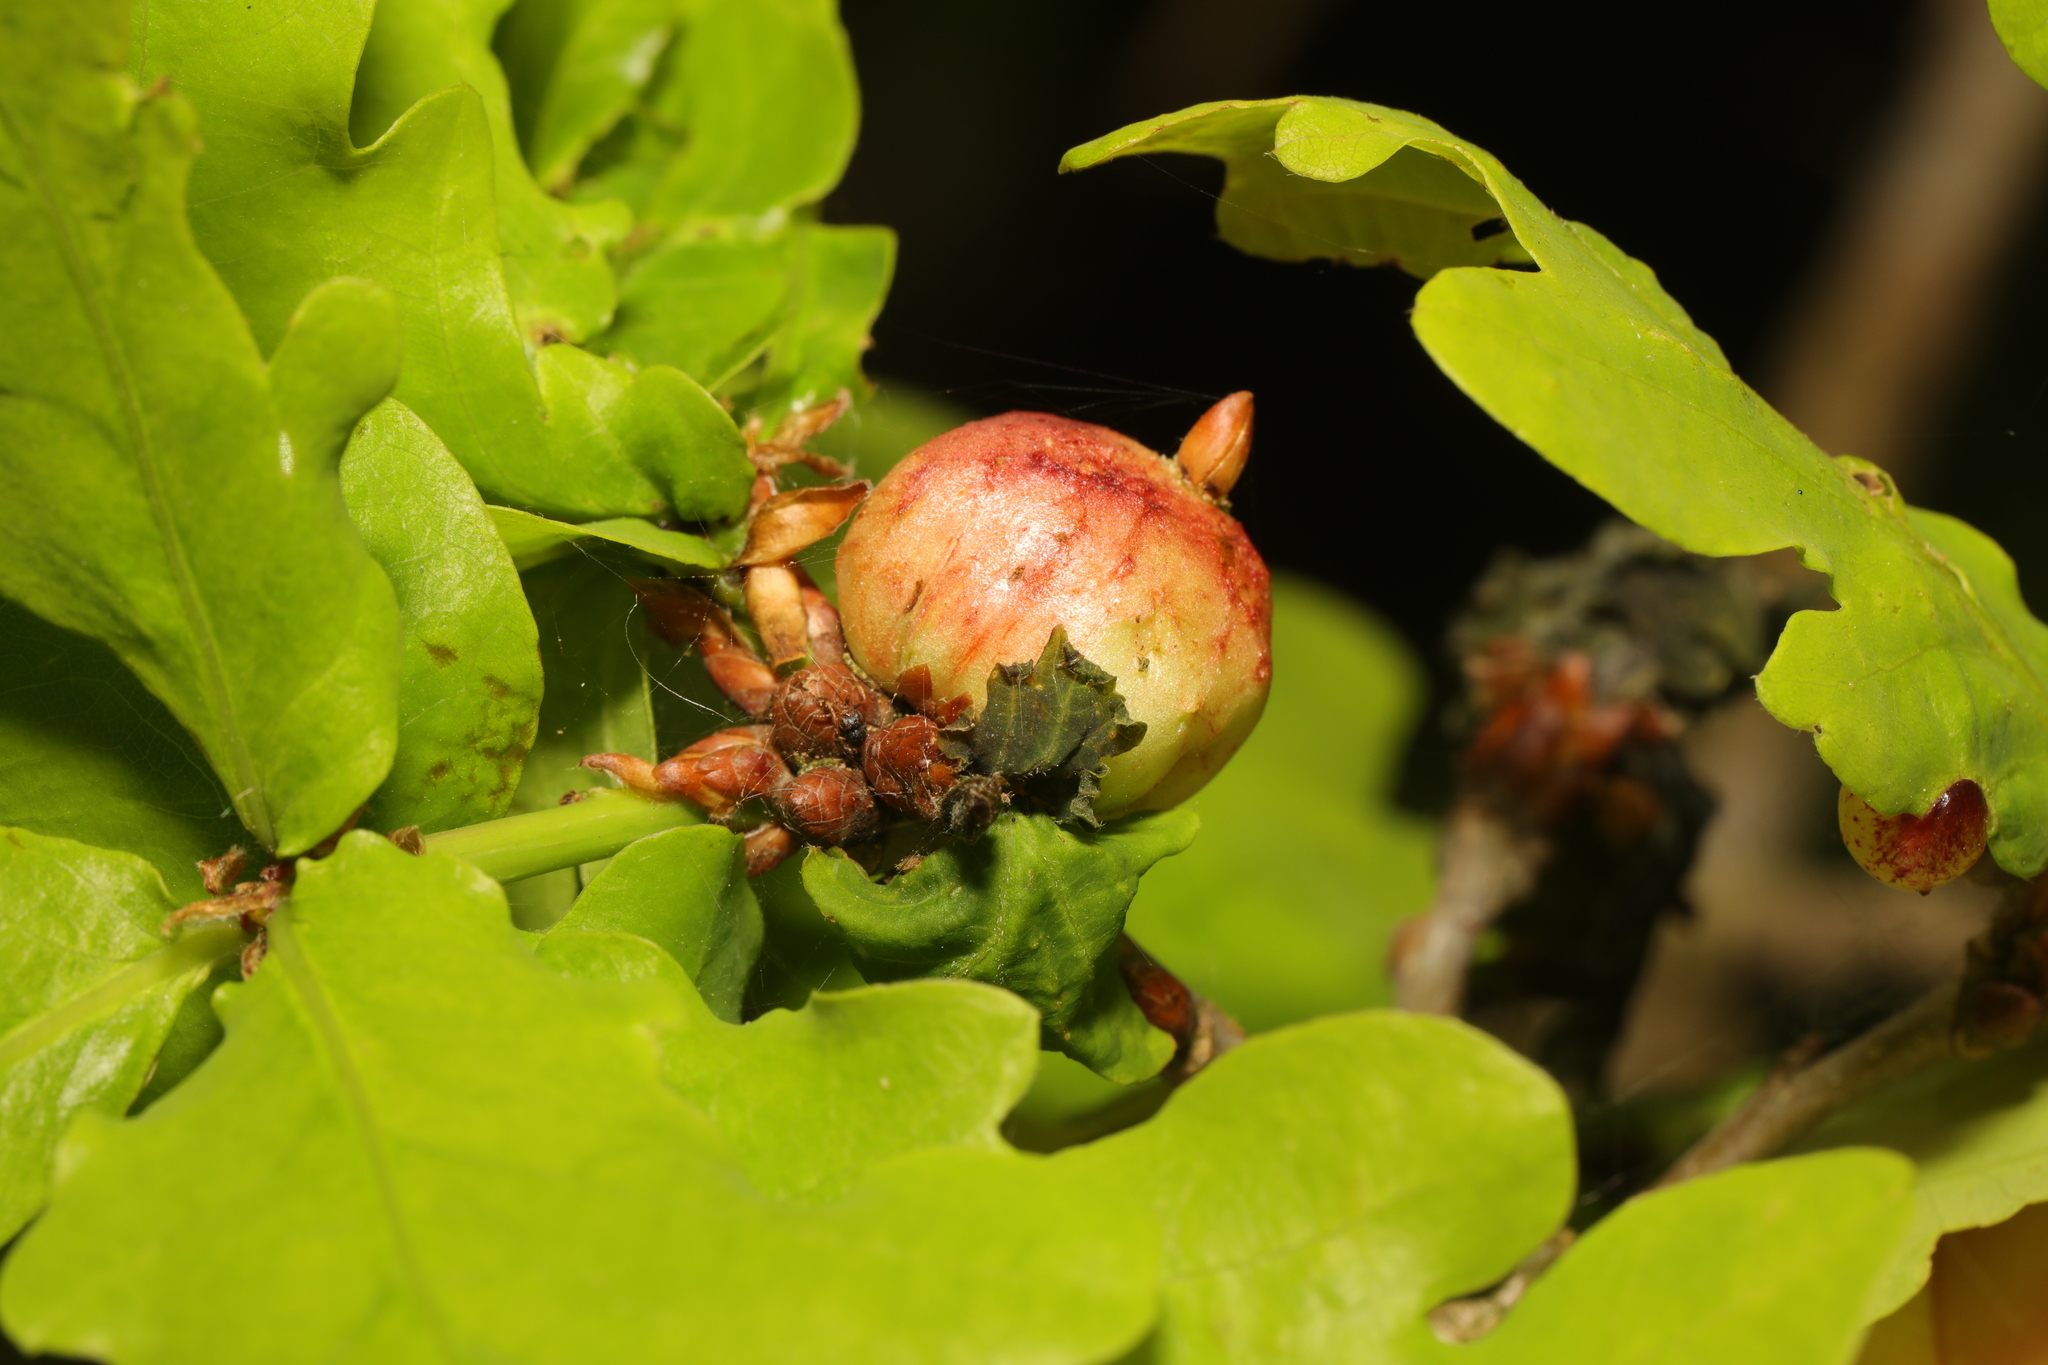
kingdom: Animalia
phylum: Arthropoda
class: Insecta
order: Hymenoptera
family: Cynipidae
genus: Biorhiza
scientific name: Biorhiza pallida
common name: Oak apple
